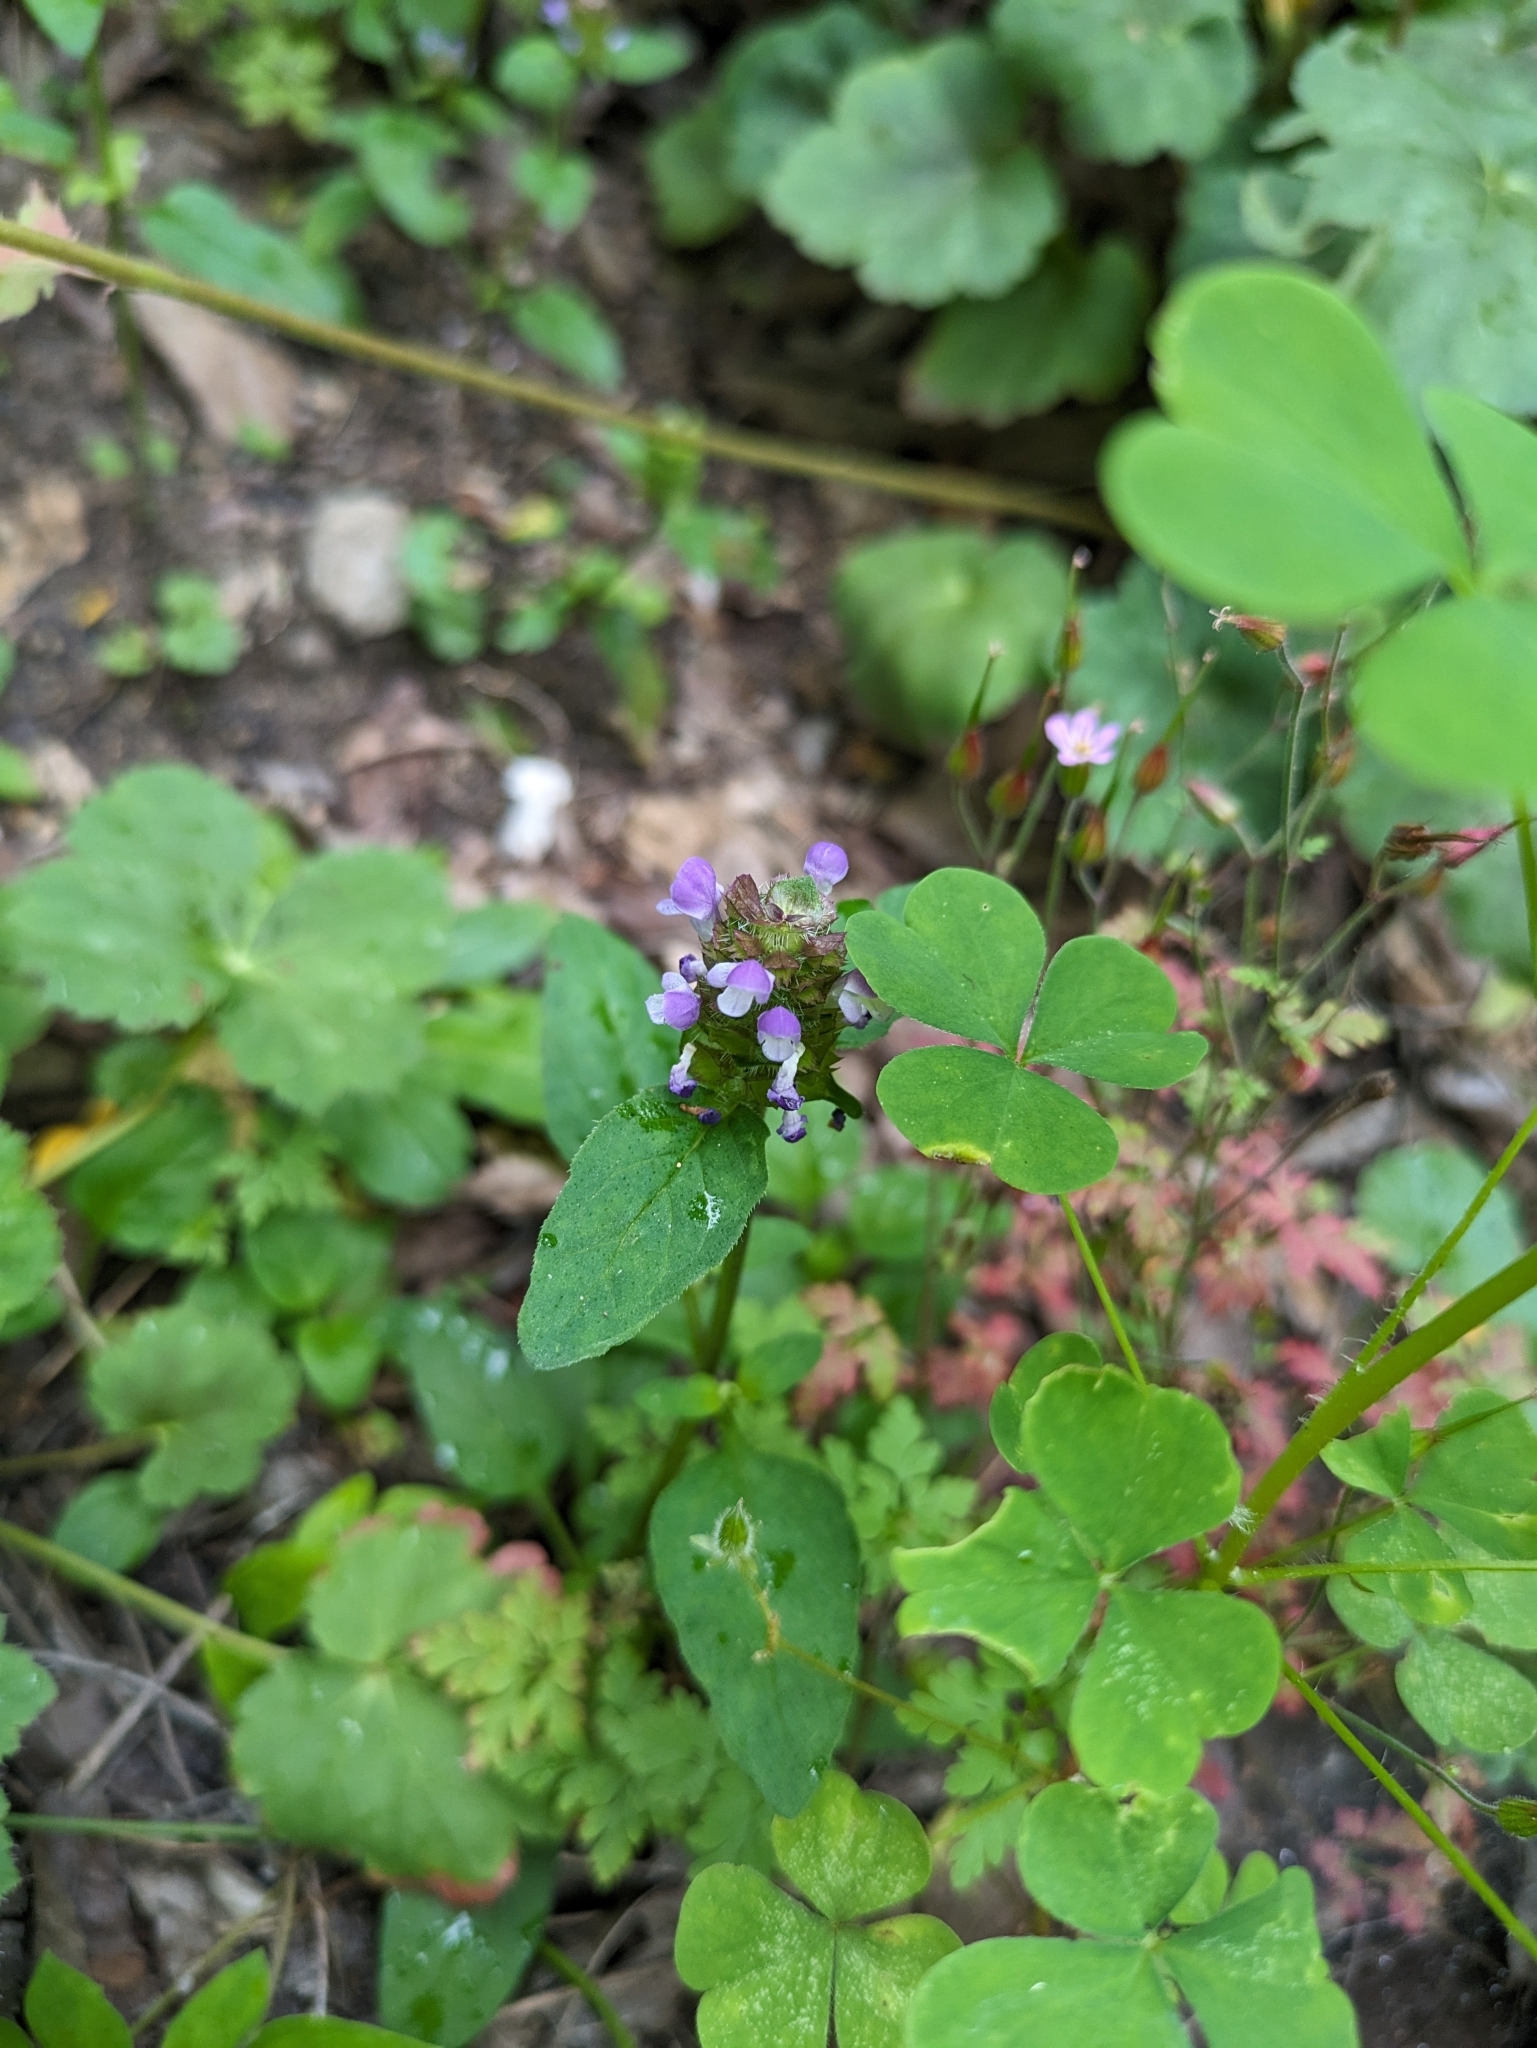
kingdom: Plantae
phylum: Tracheophyta
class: Magnoliopsida
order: Lamiales
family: Lamiaceae
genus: Prunella
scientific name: Prunella vulgaris
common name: Heal-all
